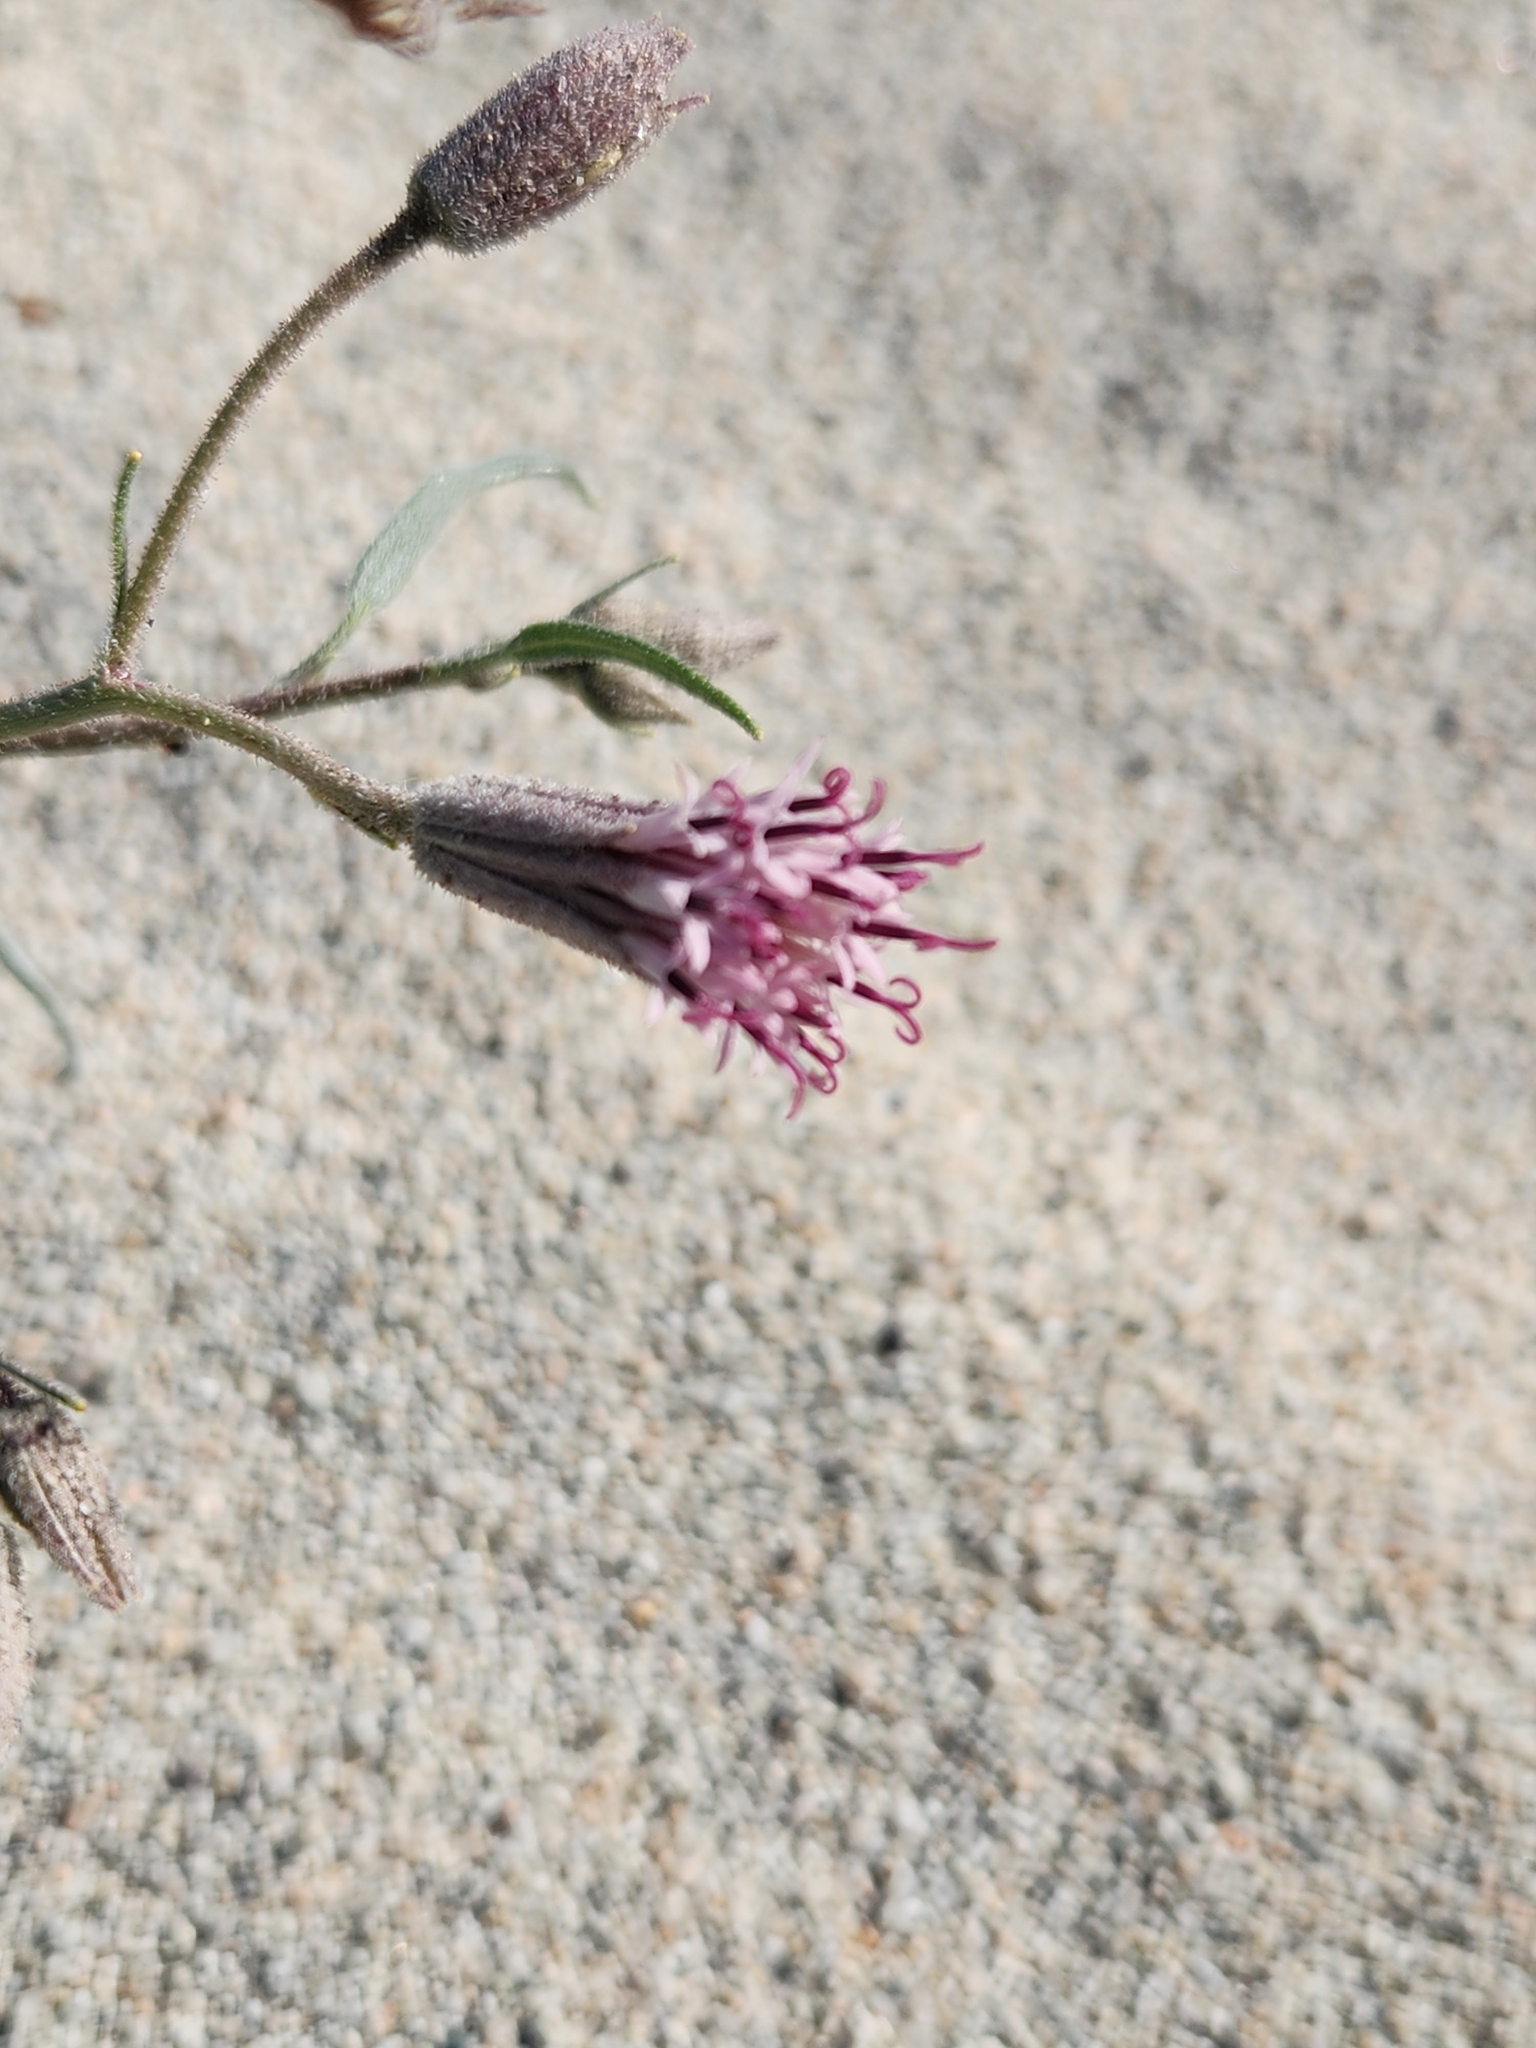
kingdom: Plantae
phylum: Tracheophyta
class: Magnoliopsida
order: Asterales
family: Asteraceae
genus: Palafoxia
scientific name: Palafoxia arida
